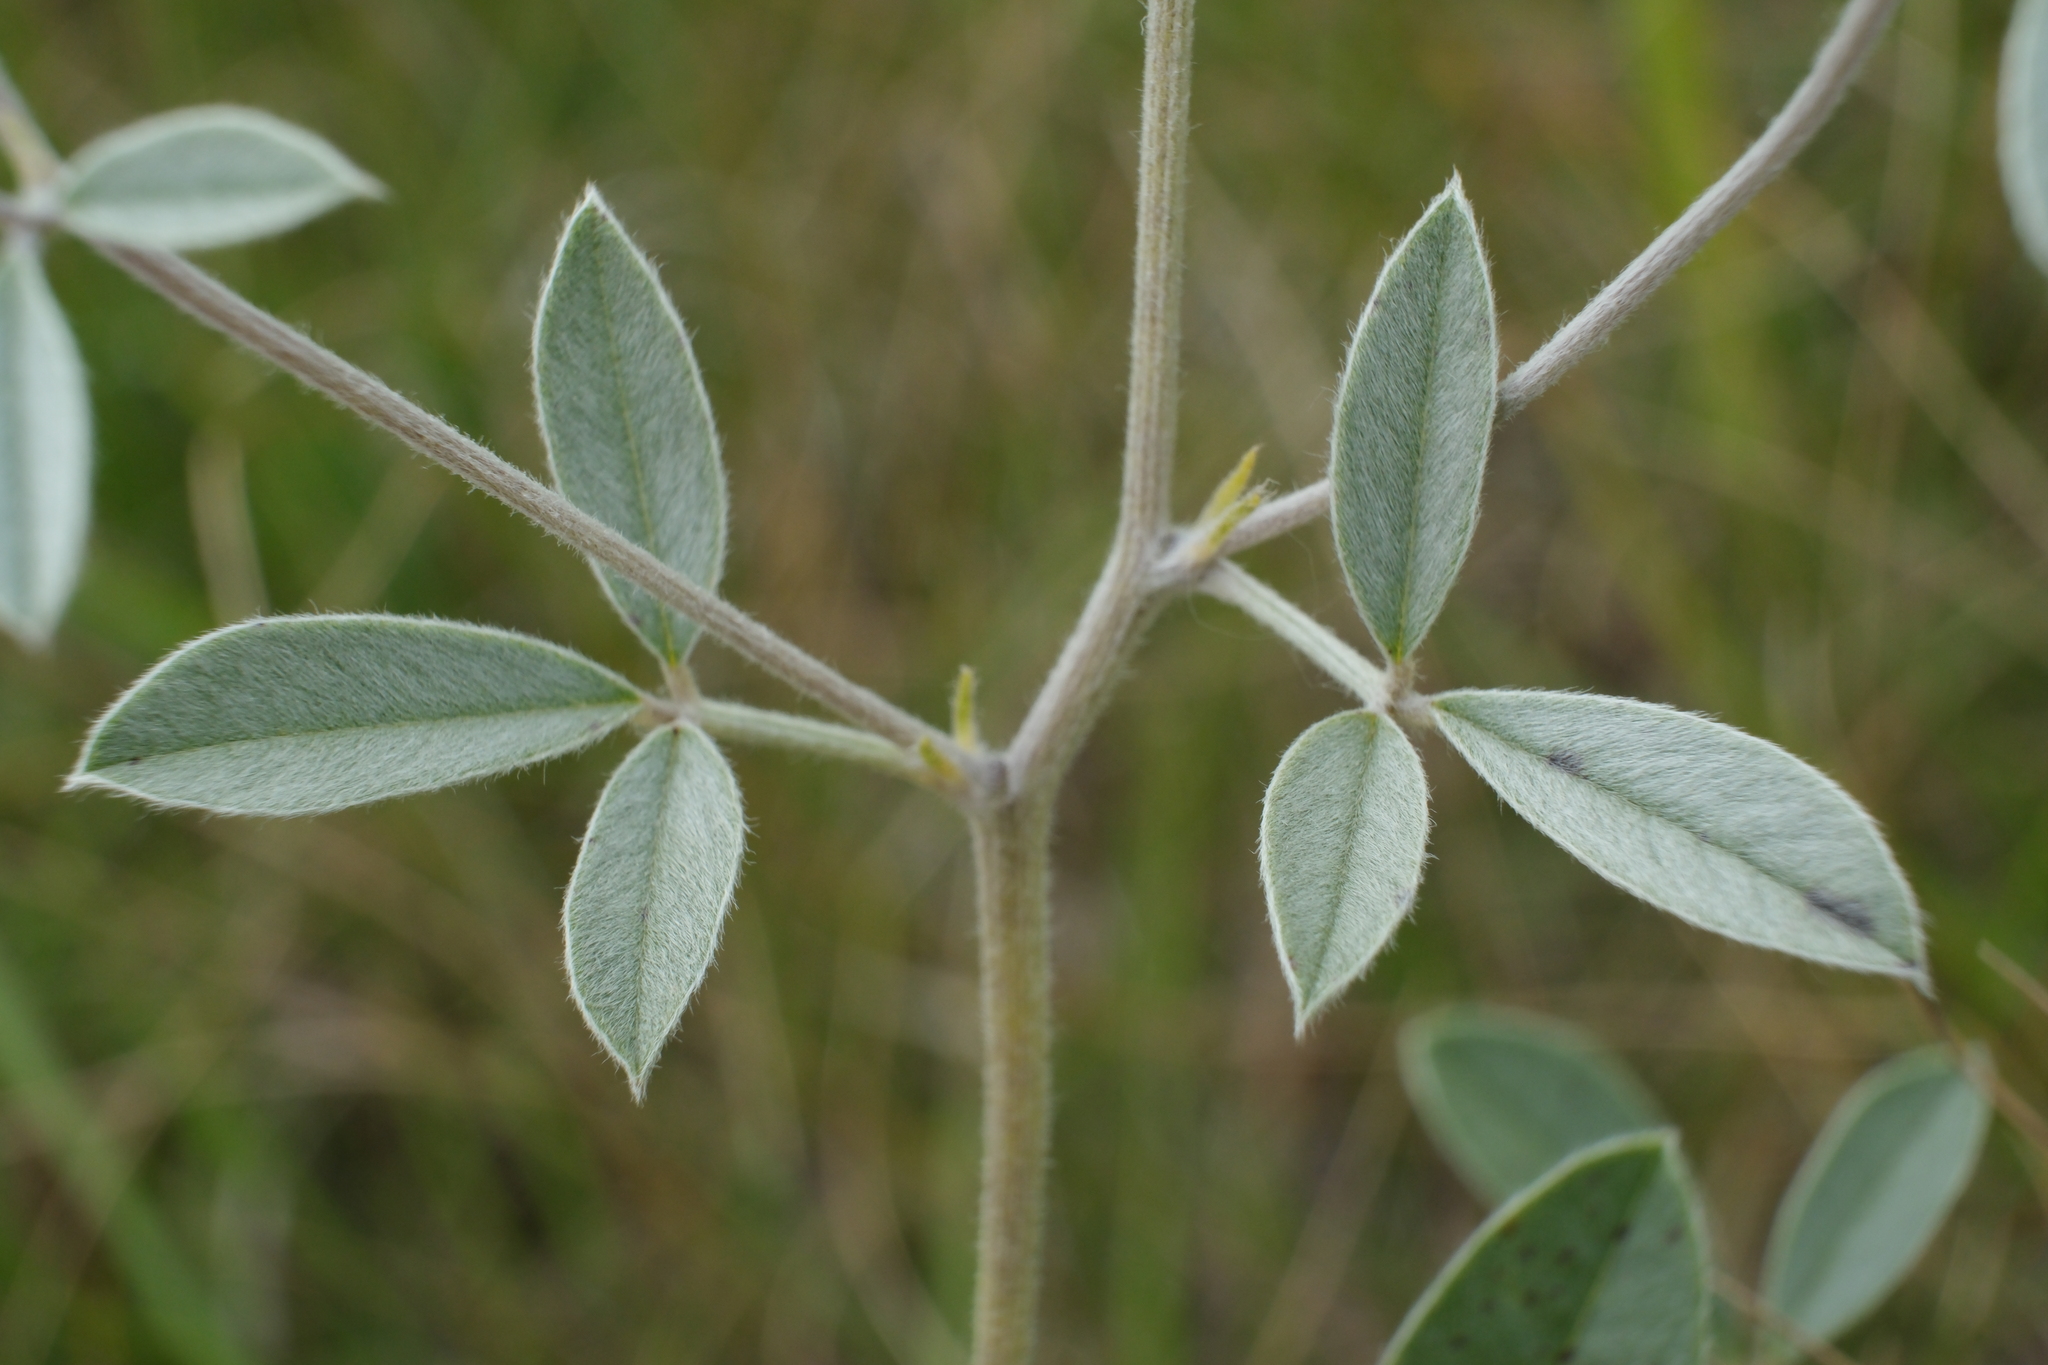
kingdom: Plantae
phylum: Tracheophyta
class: Magnoliopsida
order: Fabales
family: Fabaceae
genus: Pediomelum
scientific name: Pediomelum argophyllum
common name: Silver-leaved indian breadroot
